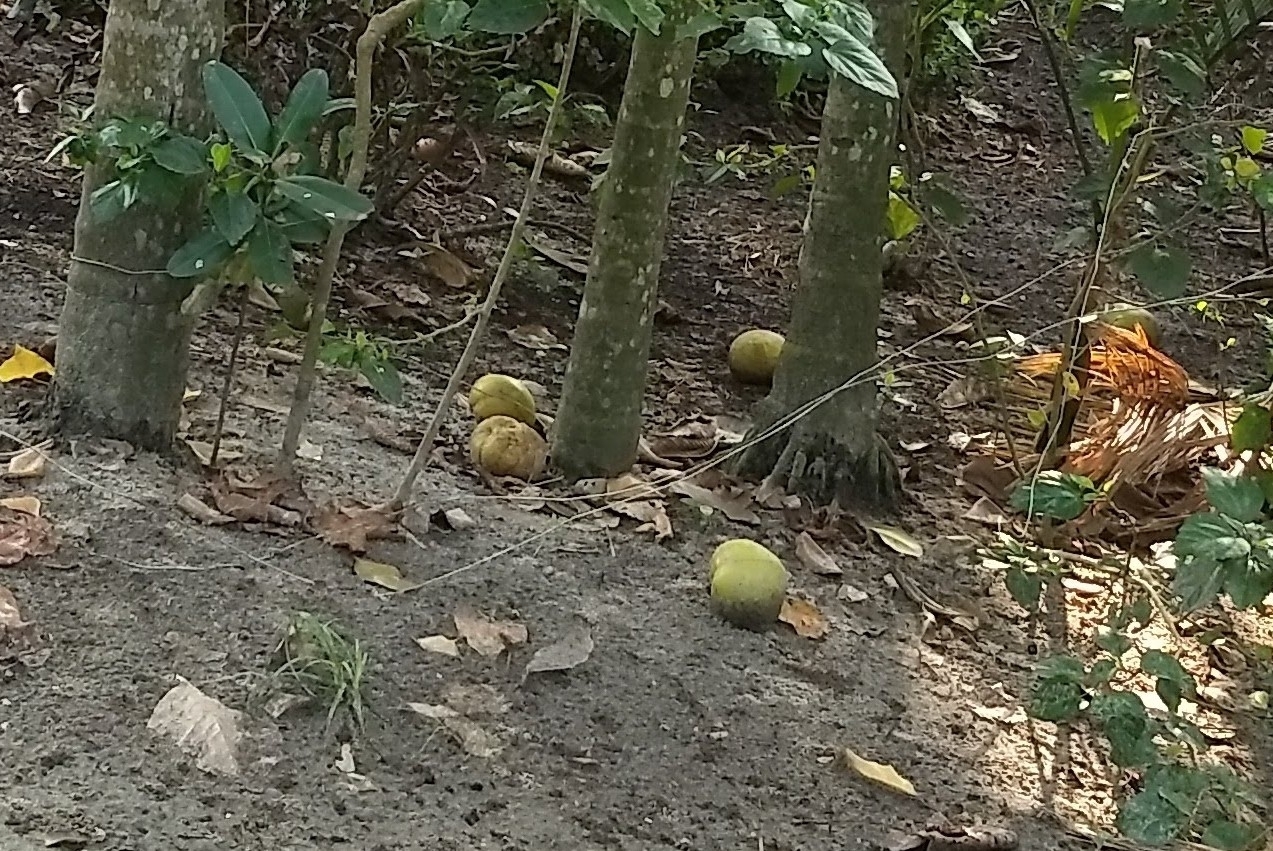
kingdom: Plantae
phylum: Tracheophyta
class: Magnoliopsida
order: Dilleniales
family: Dilleniaceae
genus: Dillenia
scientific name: Dillenia indica
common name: Elephant apple
